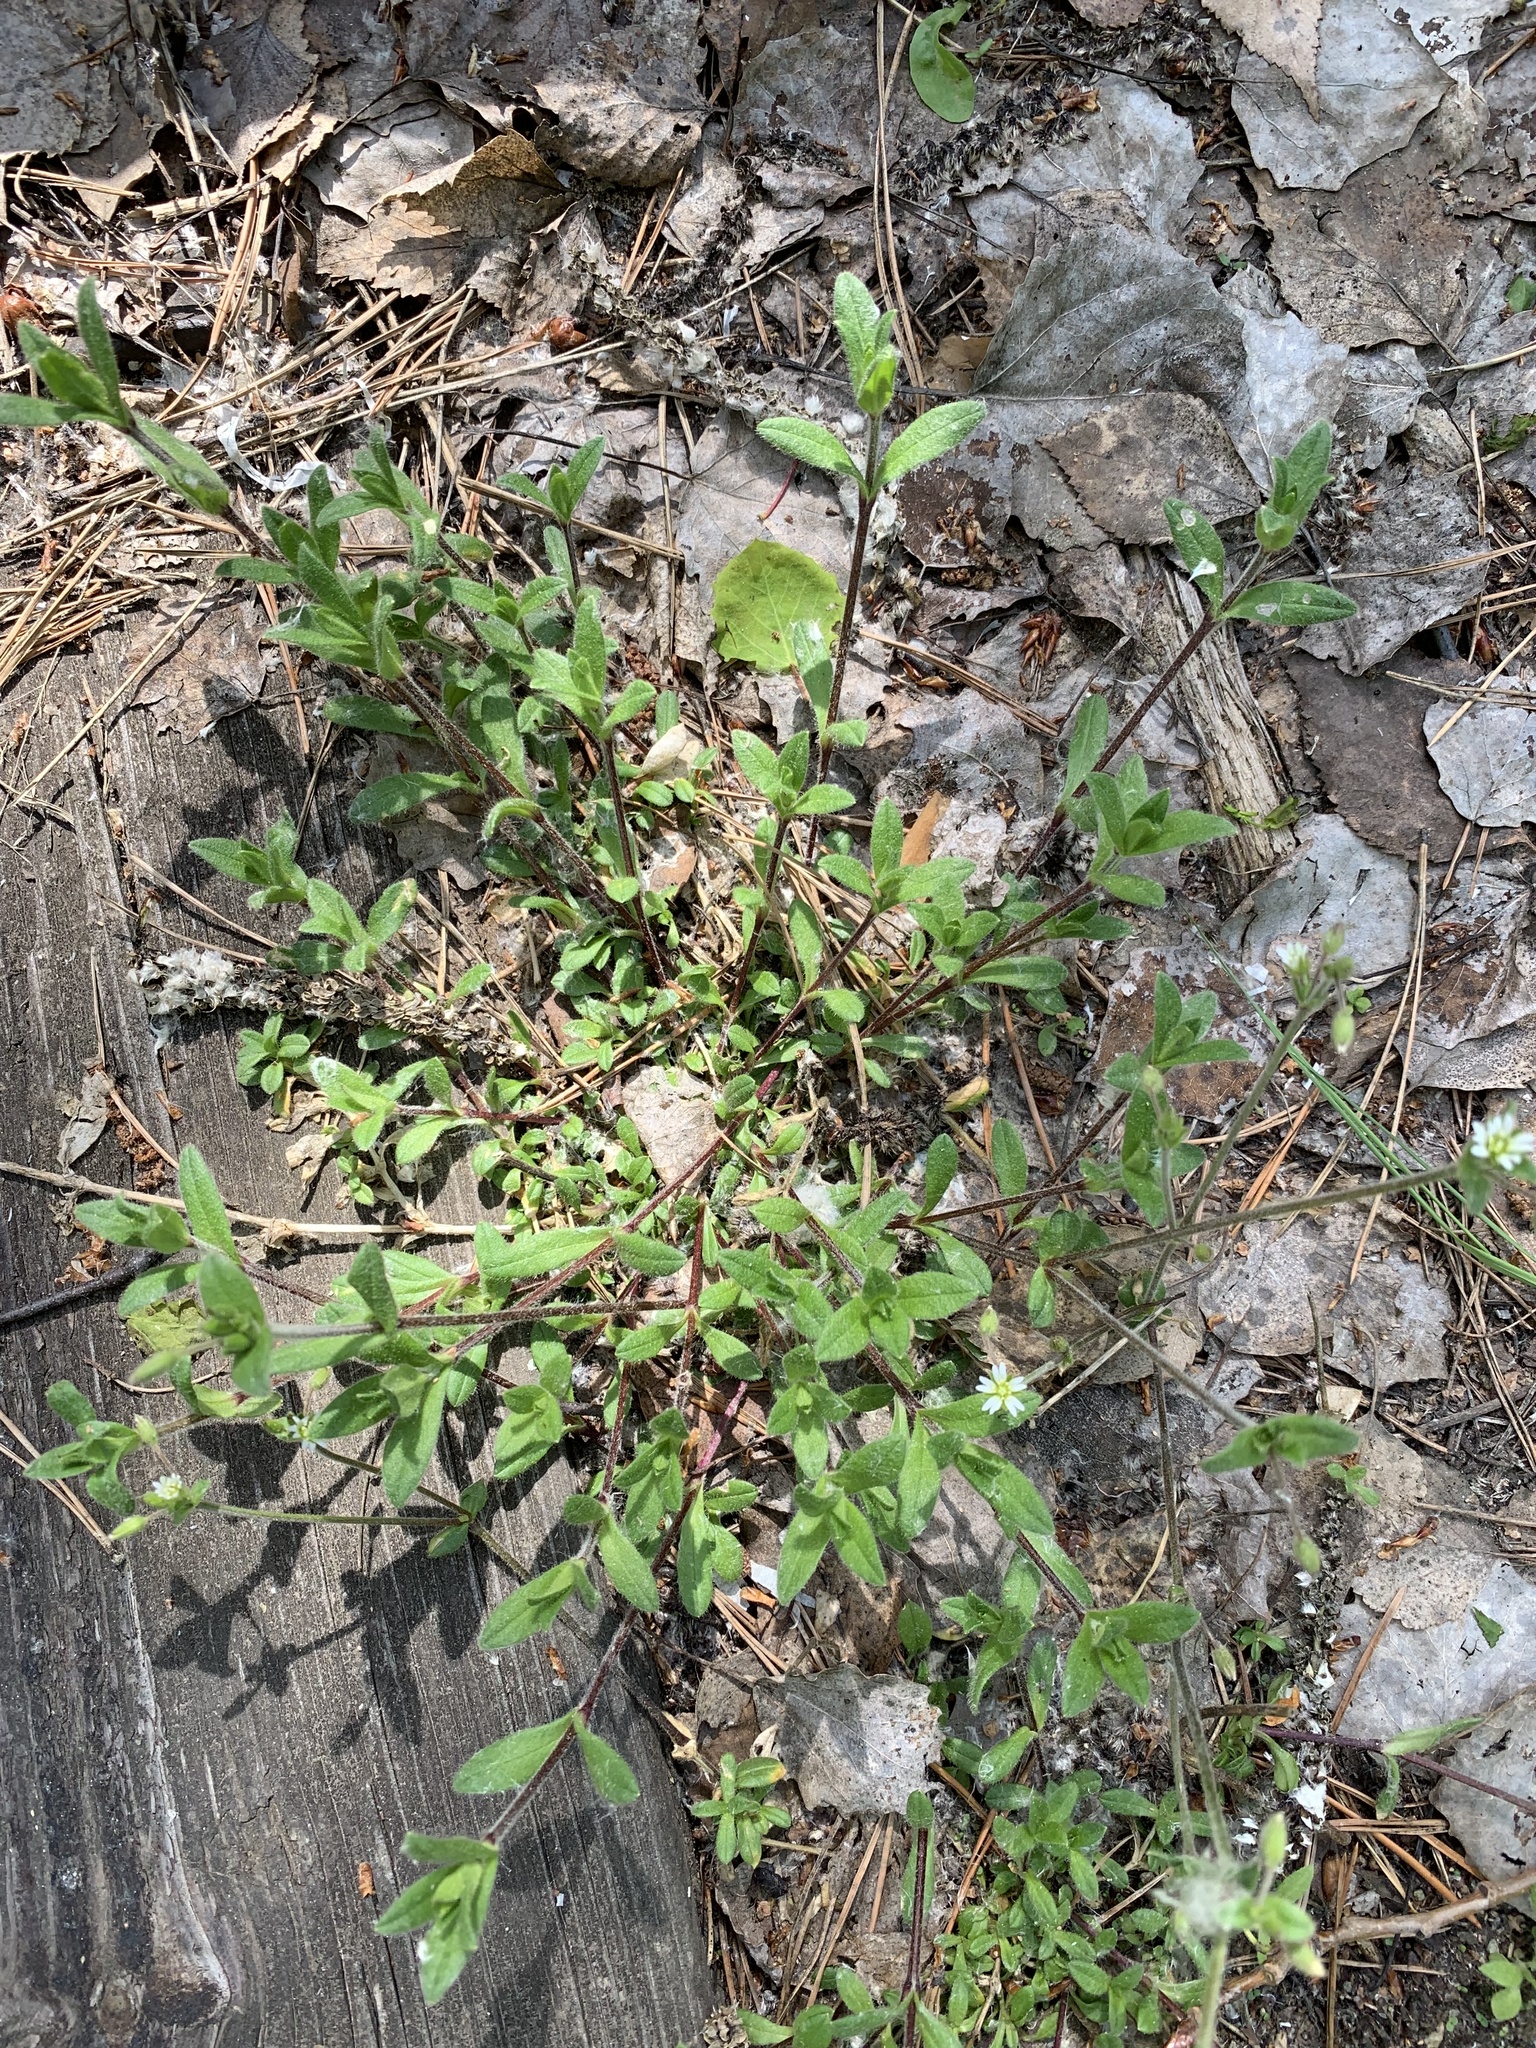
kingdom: Plantae
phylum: Tracheophyta
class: Magnoliopsida
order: Caryophyllales
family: Caryophyllaceae
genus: Cerastium
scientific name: Cerastium holosteoides
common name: Big chickweed
